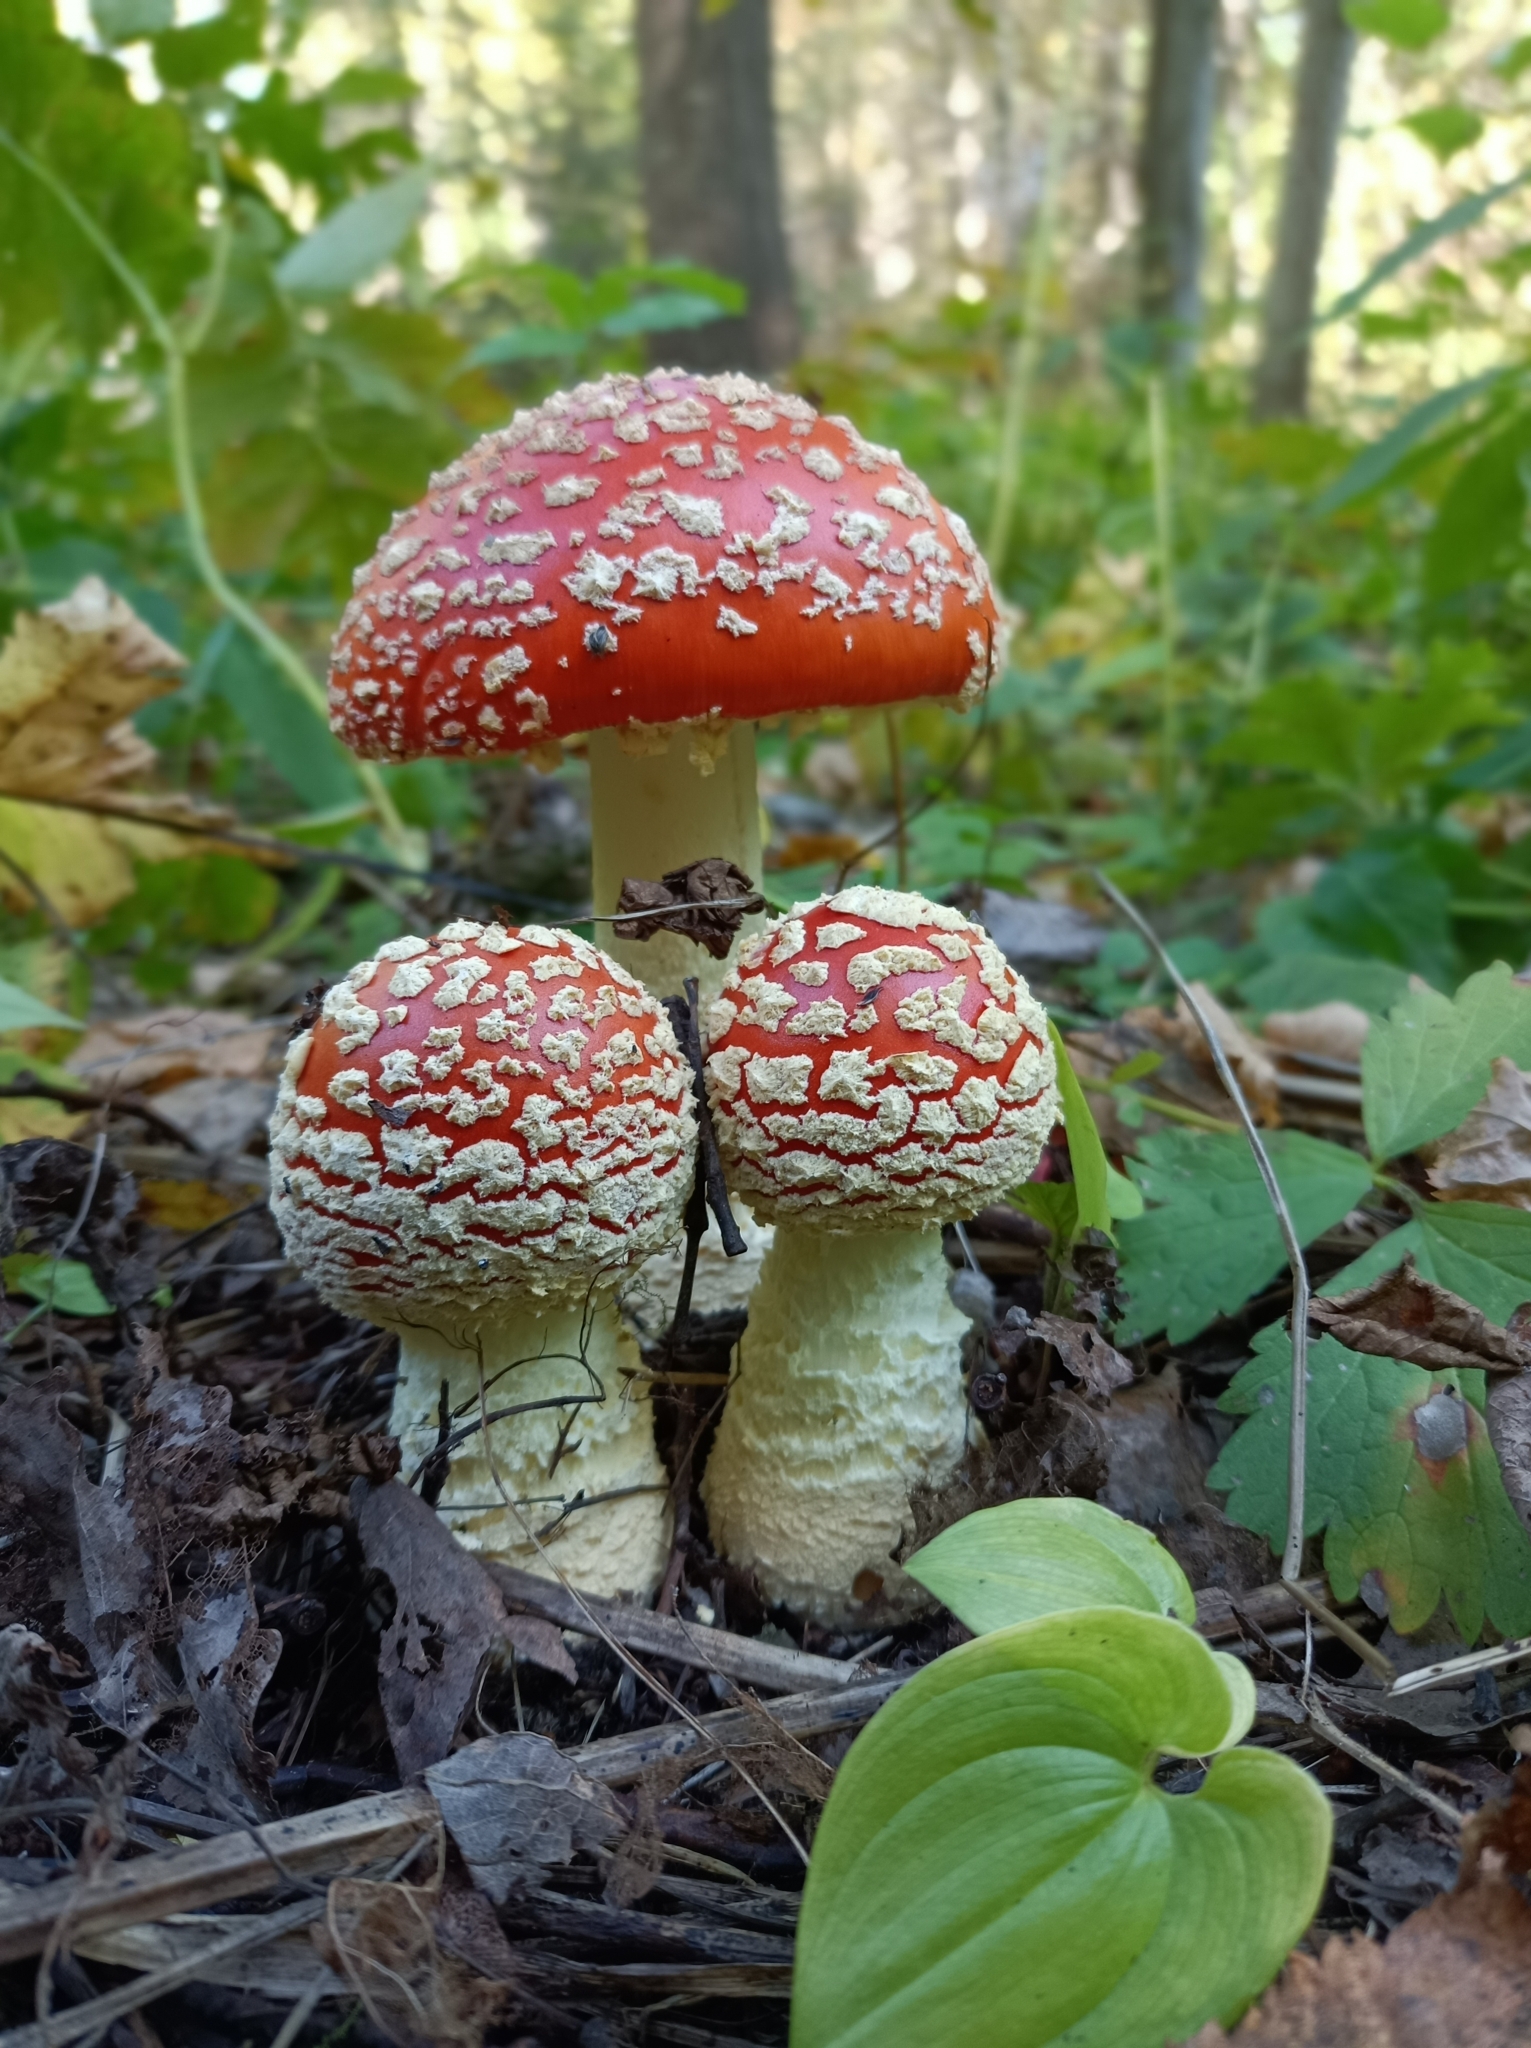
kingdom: Fungi
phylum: Basidiomycota
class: Agaricomycetes
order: Agaricales
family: Amanitaceae
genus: Amanita
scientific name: Amanita muscaria
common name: Fly agaric
